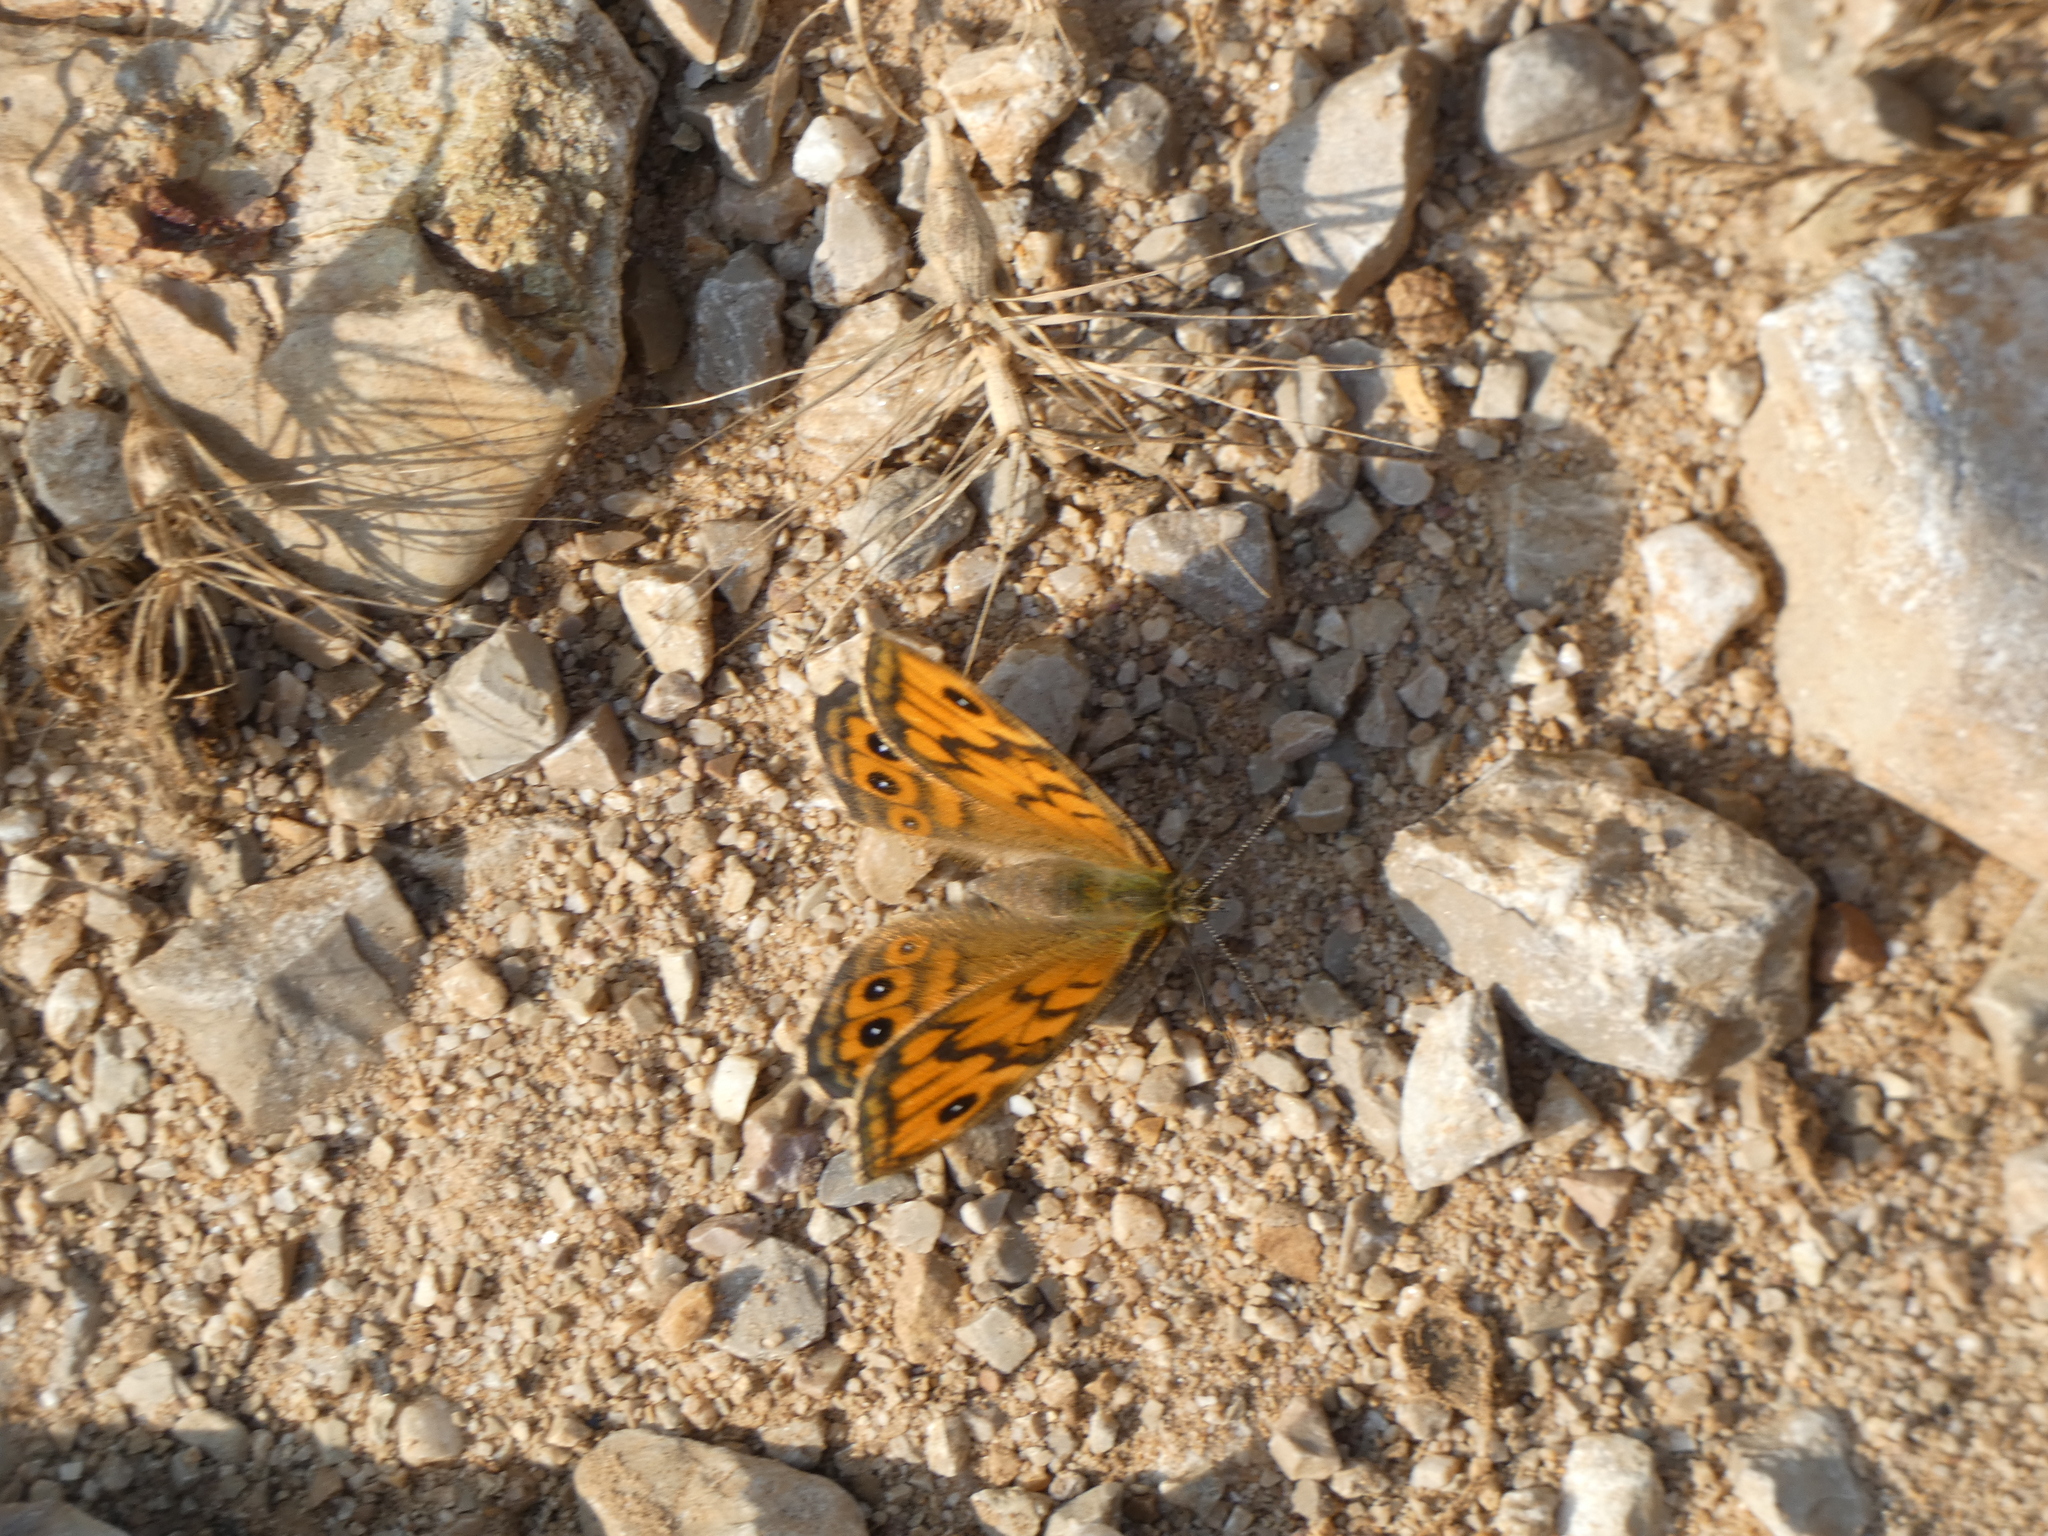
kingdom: Animalia
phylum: Arthropoda
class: Insecta
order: Lepidoptera
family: Nymphalidae
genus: Pararge
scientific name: Pararge Lasiommata megera
